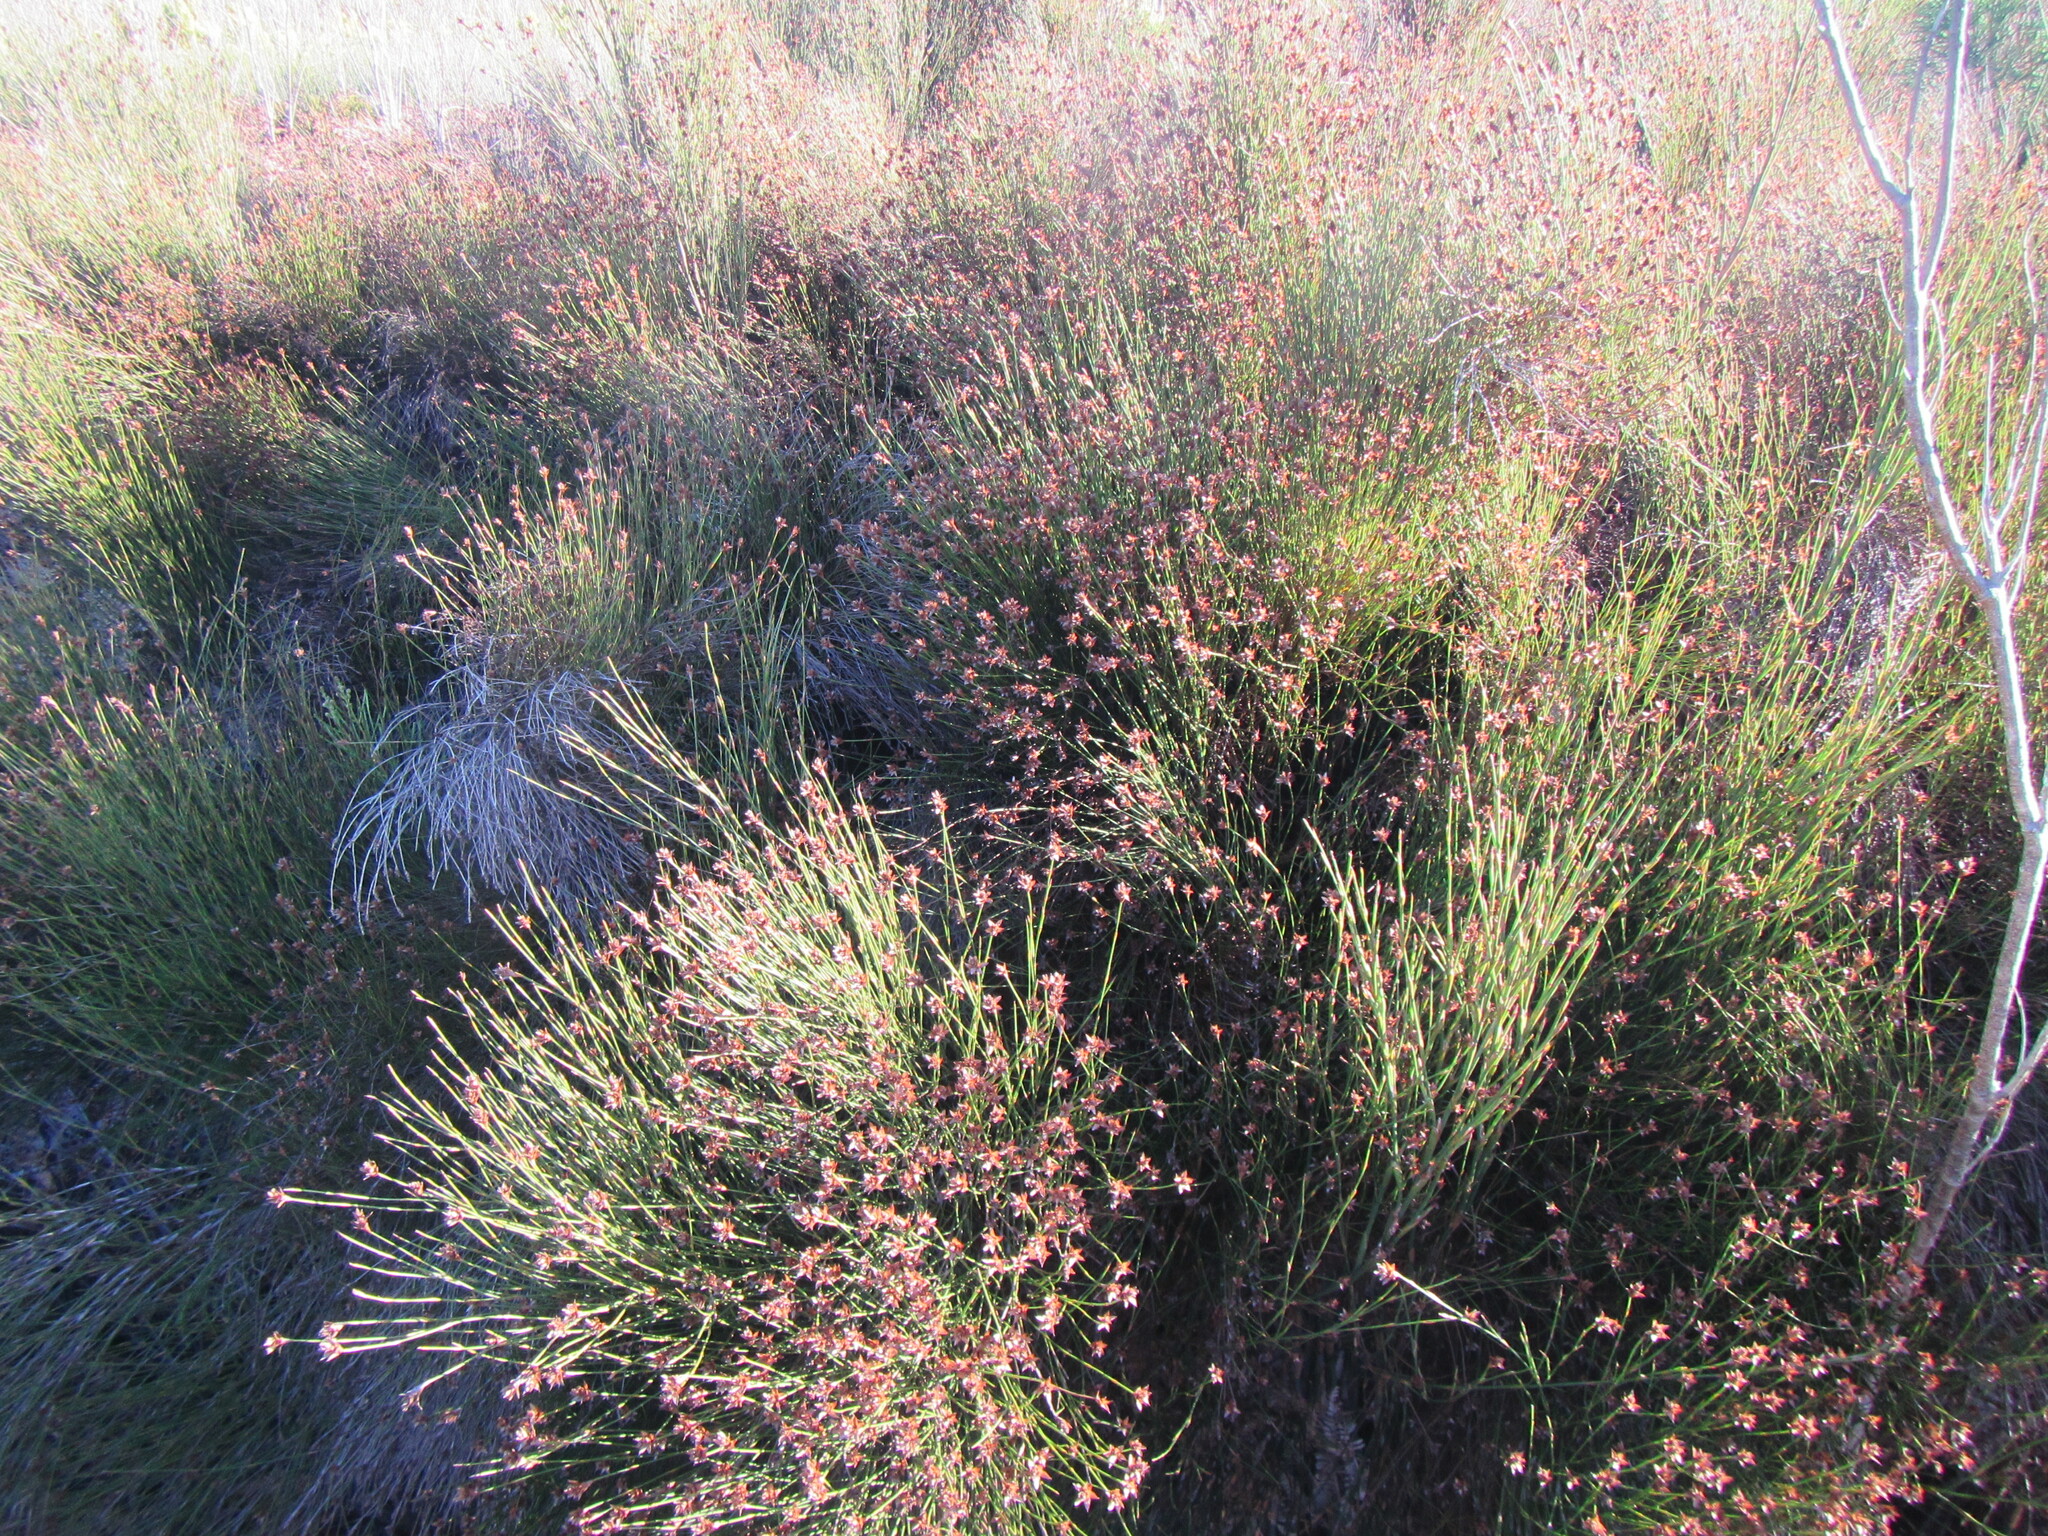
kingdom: Plantae
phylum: Tracheophyta
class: Liliopsida
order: Poales
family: Restionaceae
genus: Platycaulos
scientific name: Platycaulos callistachyus
